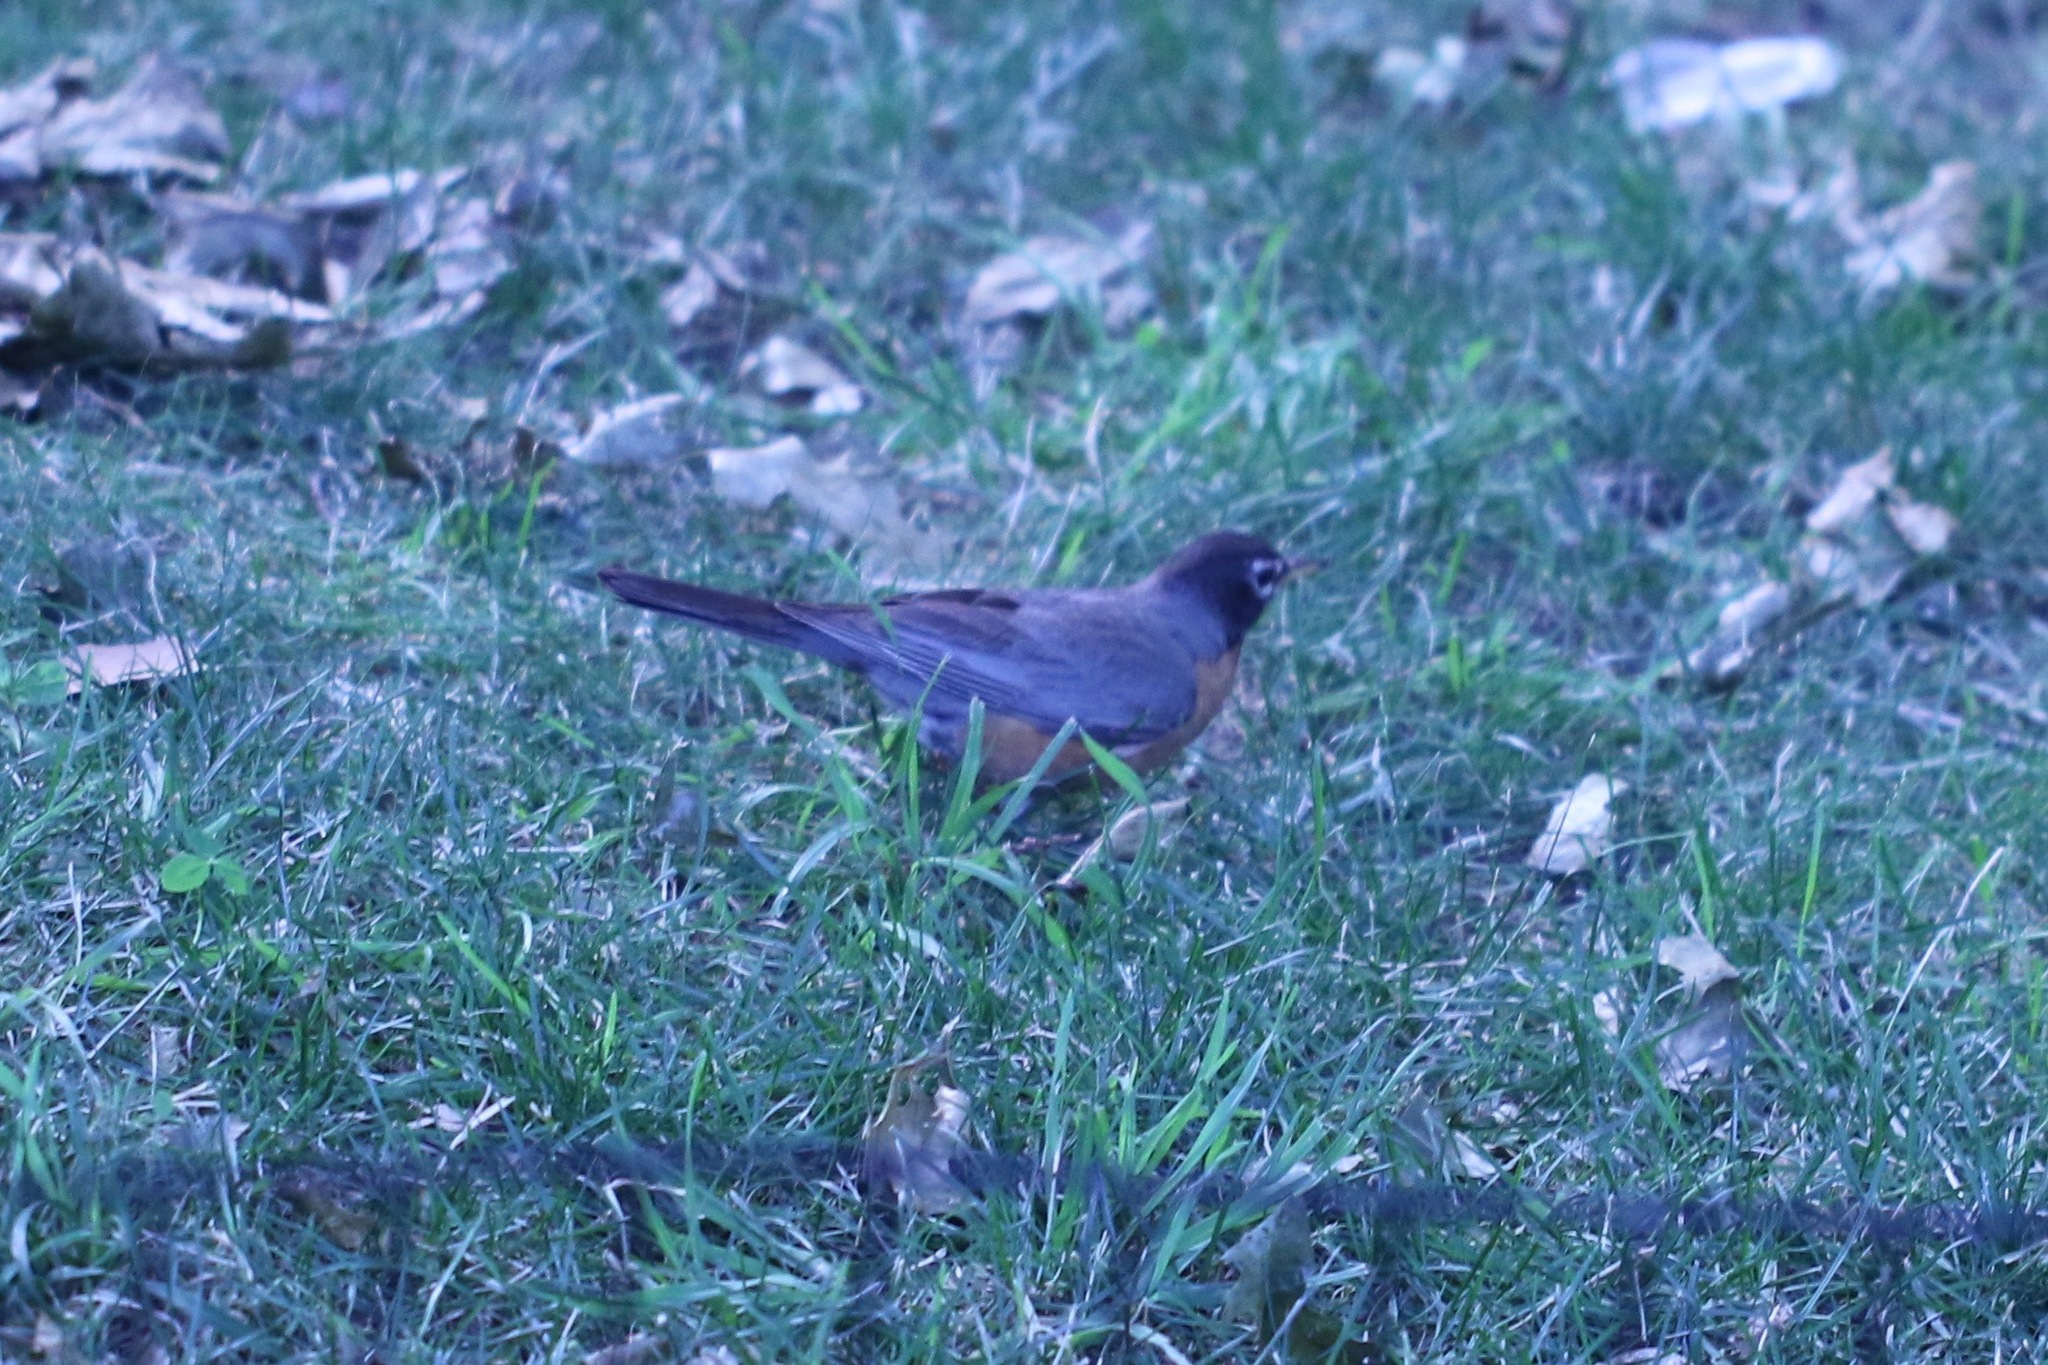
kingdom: Animalia
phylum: Chordata
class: Aves
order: Passeriformes
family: Turdidae
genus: Turdus
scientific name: Turdus migratorius
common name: American robin
